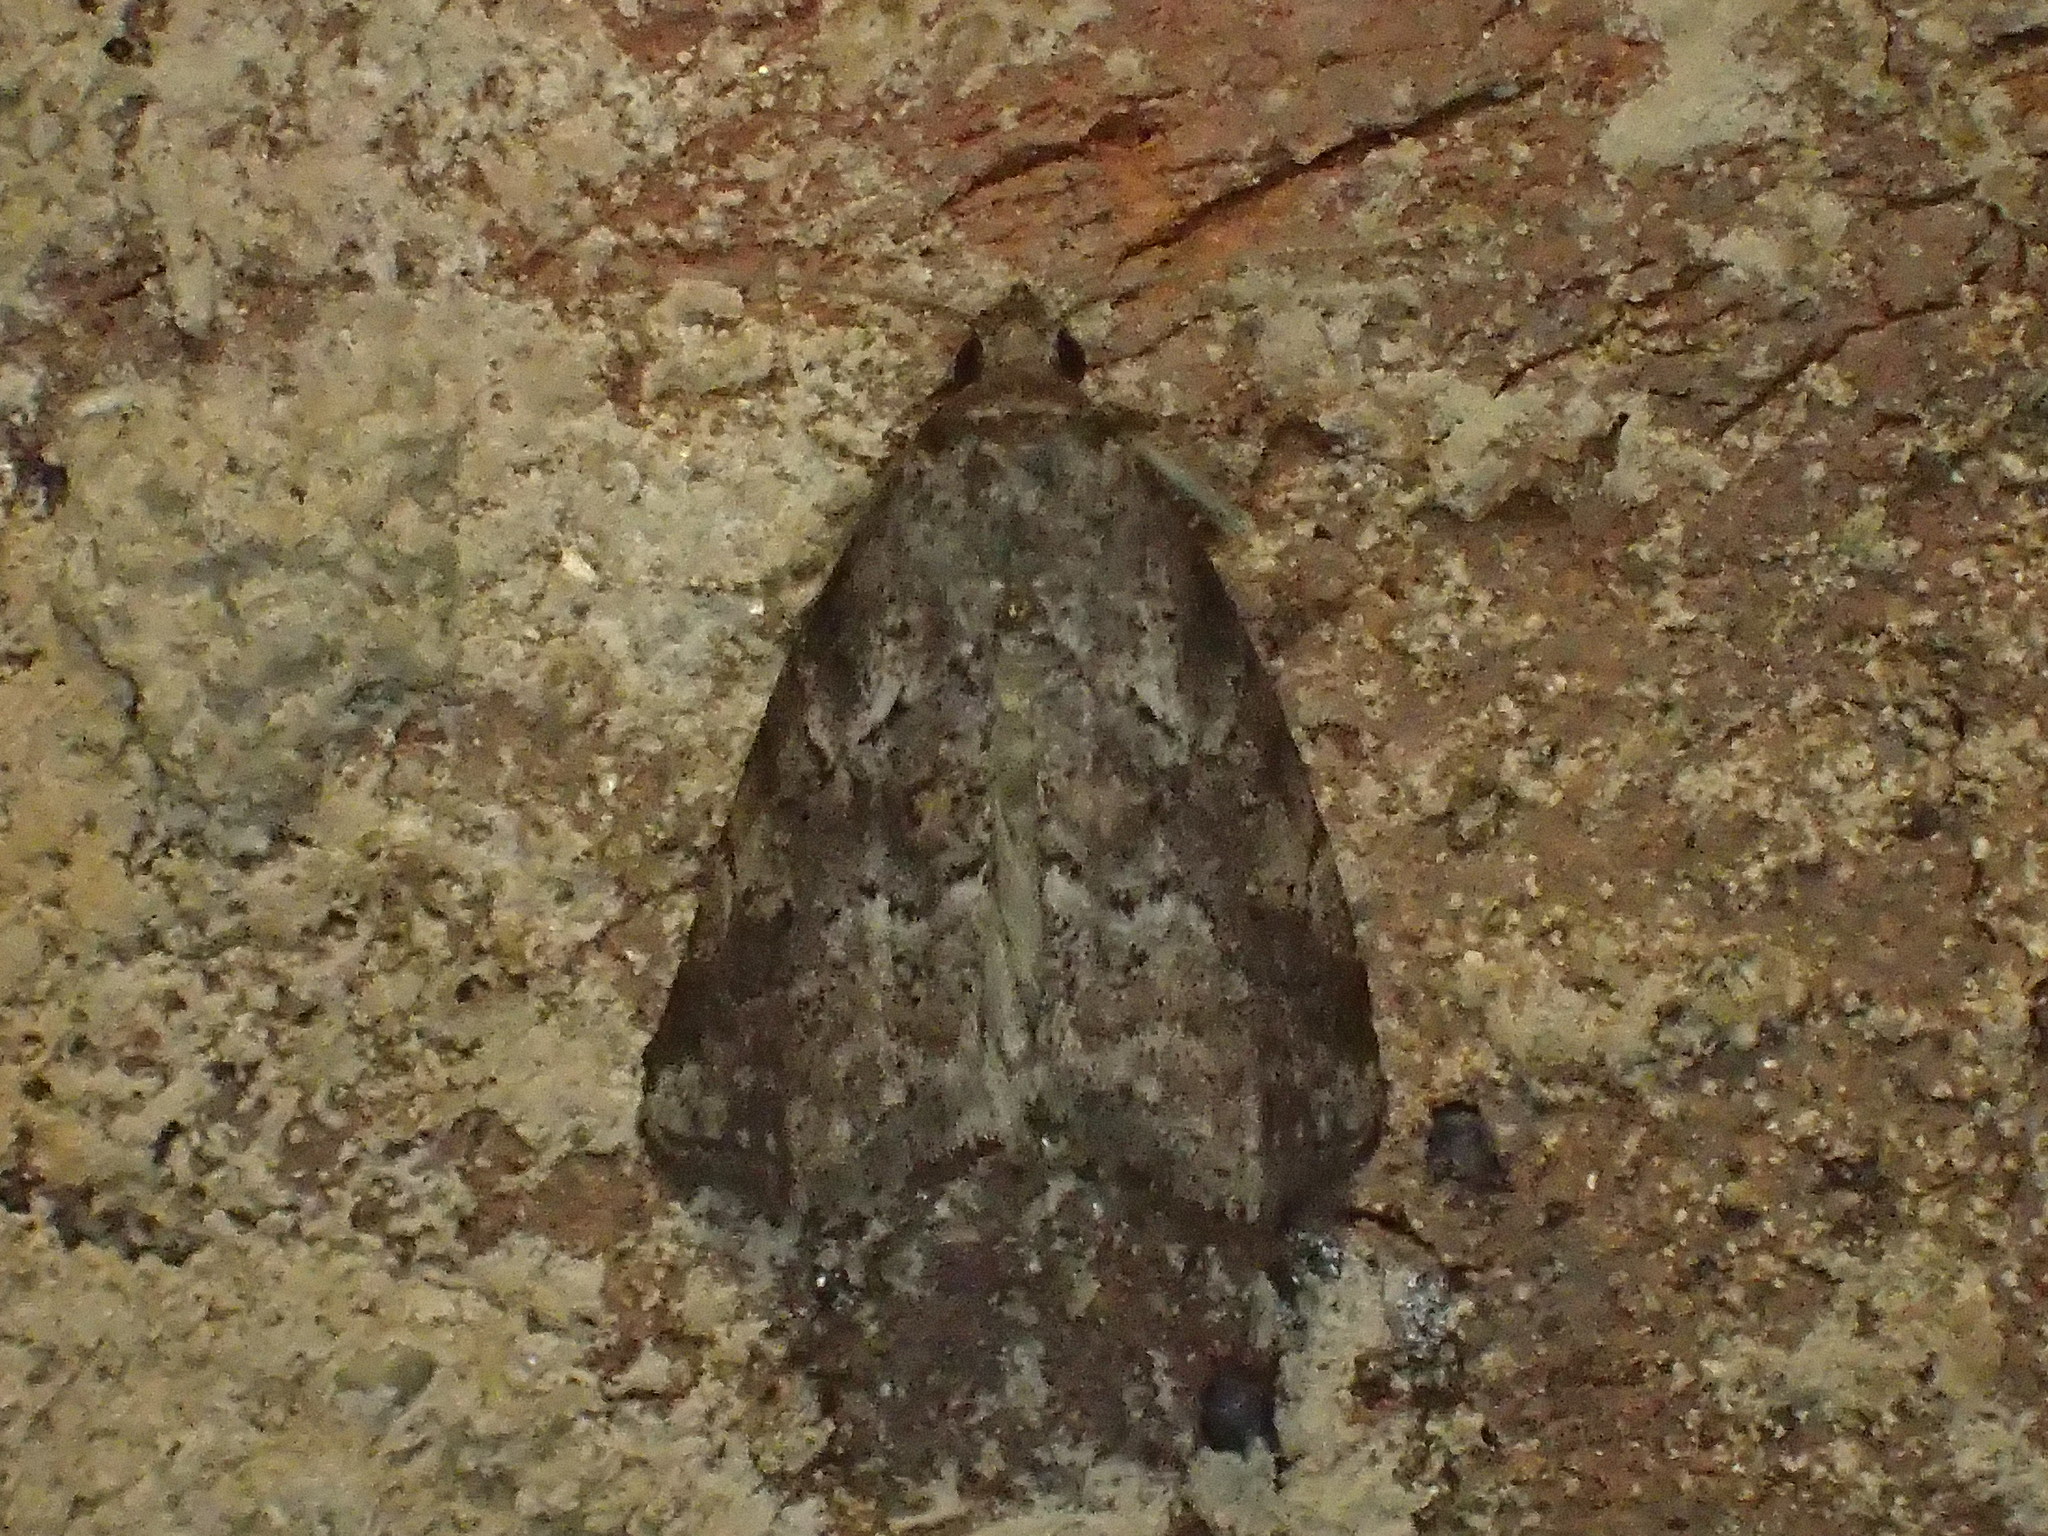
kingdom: Animalia
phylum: Arthropoda
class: Insecta
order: Lepidoptera
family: Erebidae
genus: Hyperstrotia
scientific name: Hyperstrotia nana
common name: White-lined graylet
